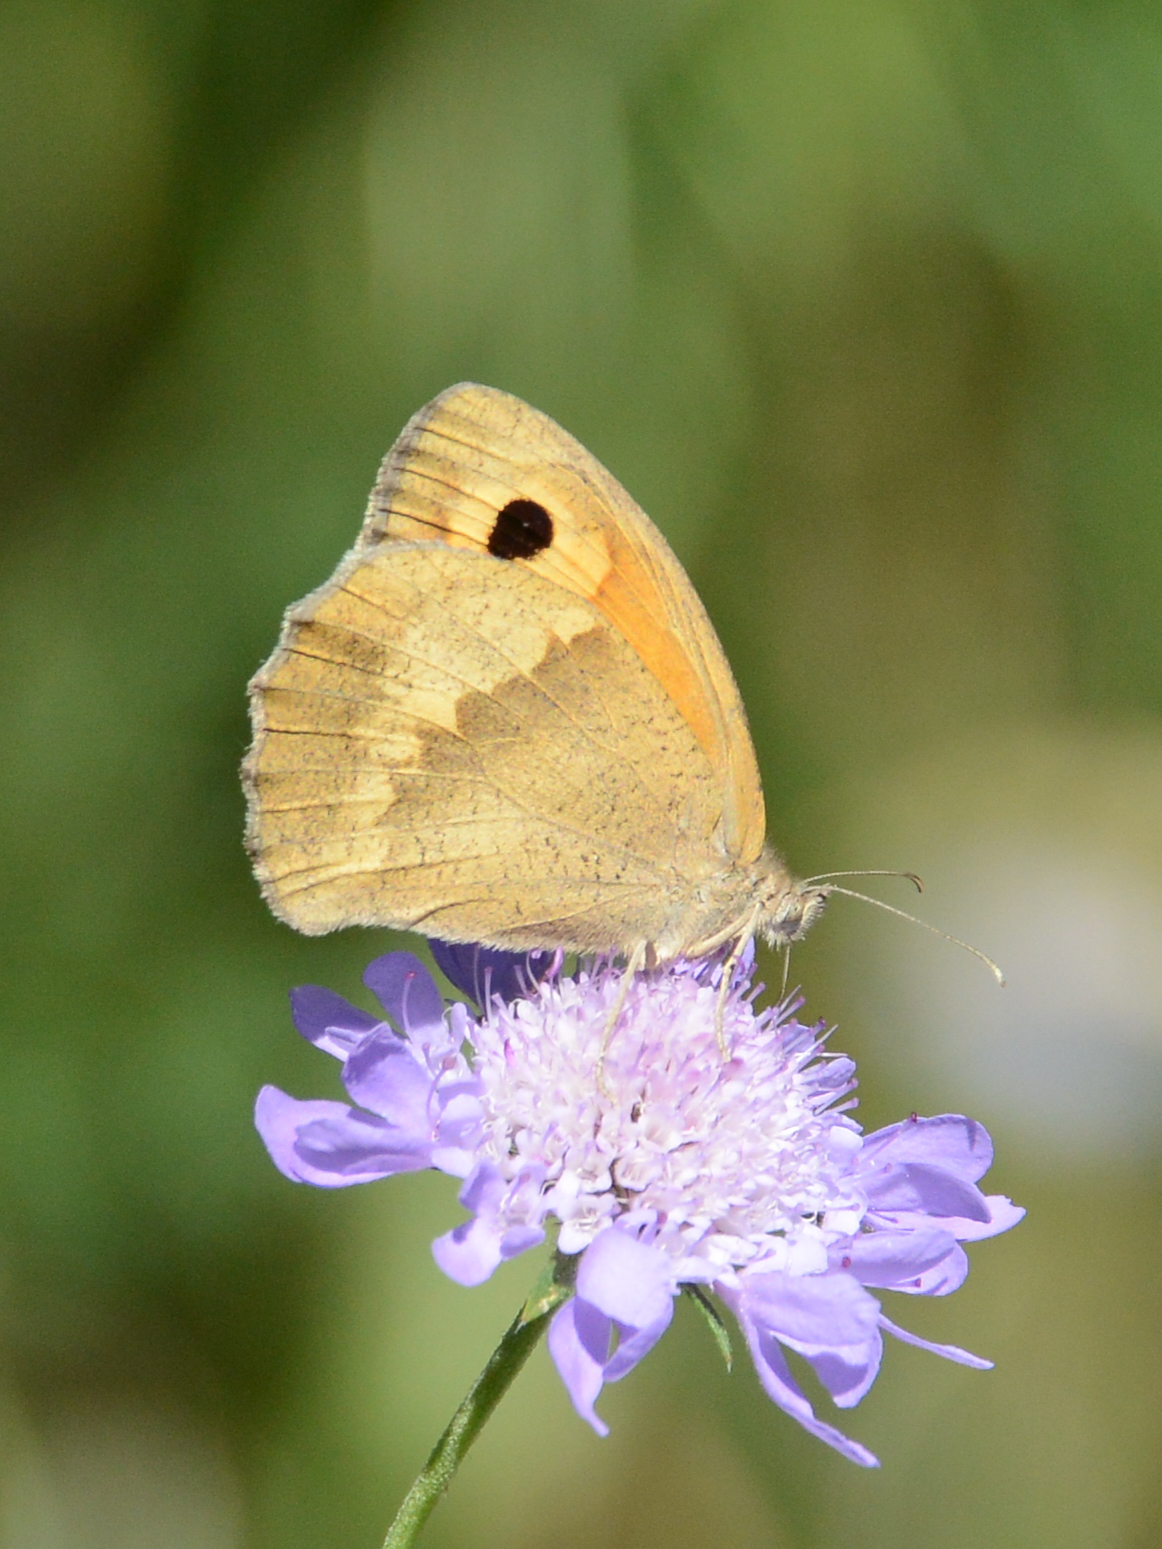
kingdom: Animalia
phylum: Arthropoda
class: Insecta
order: Lepidoptera
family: Nymphalidae
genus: Maniola
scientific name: Maniola jurtina
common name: Meadow brown
